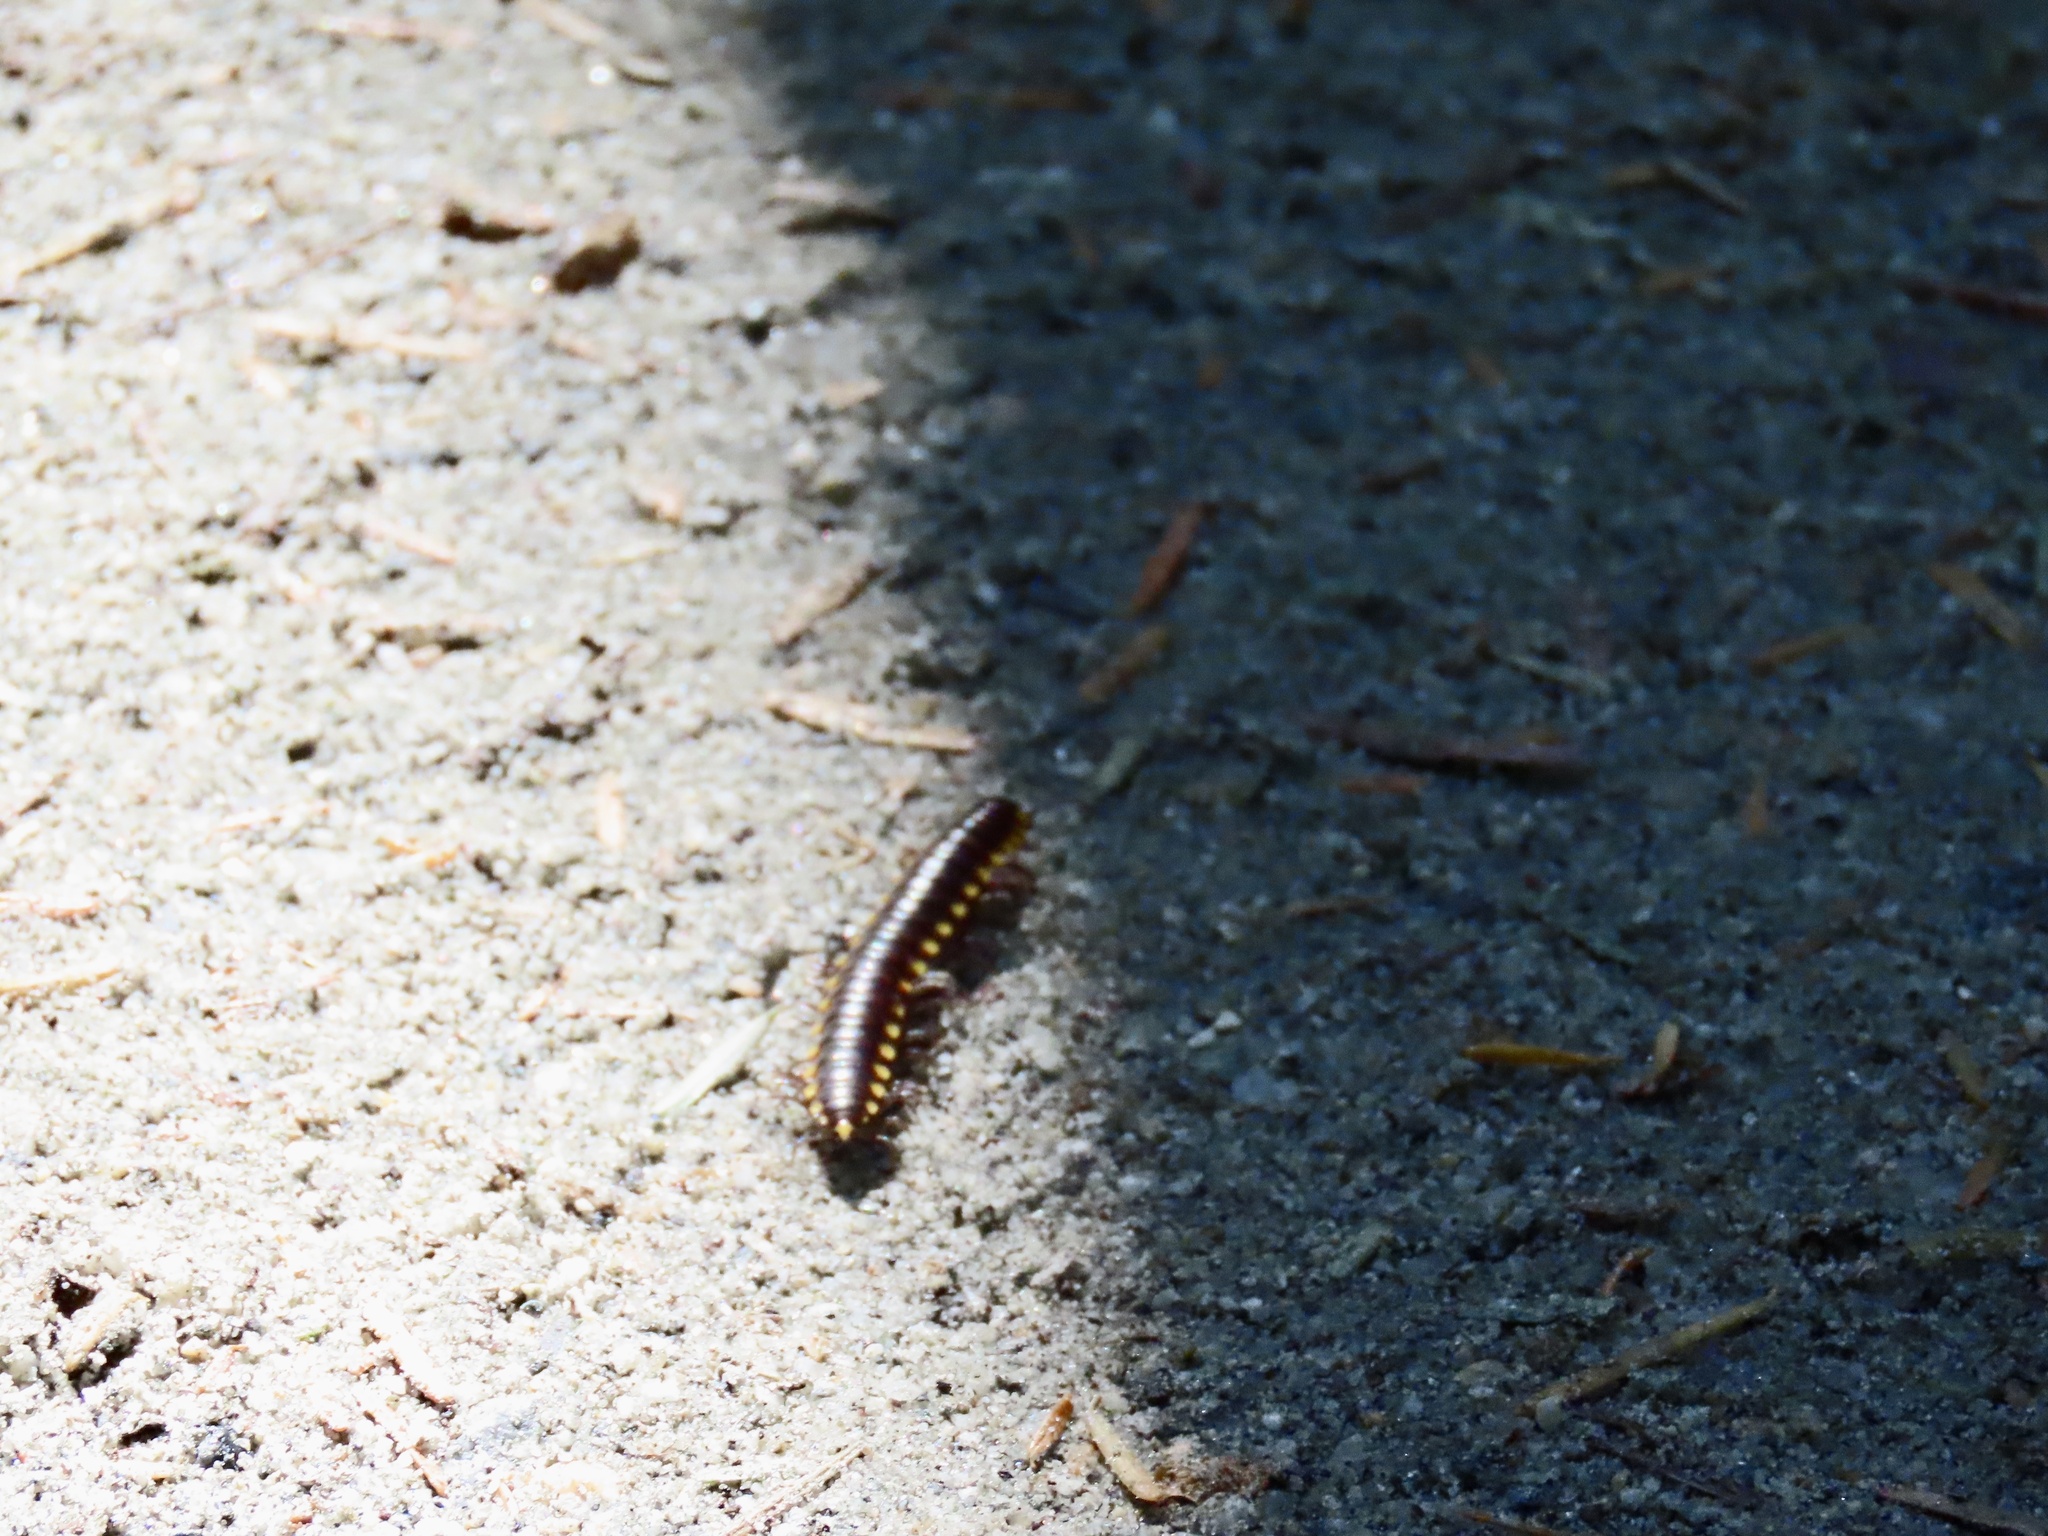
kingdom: Animalia
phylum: Arthropoda
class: Diplopoda
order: Polydesmida
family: Xystodesmidae
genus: Harpaphe
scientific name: Harpaphe haydeniana
